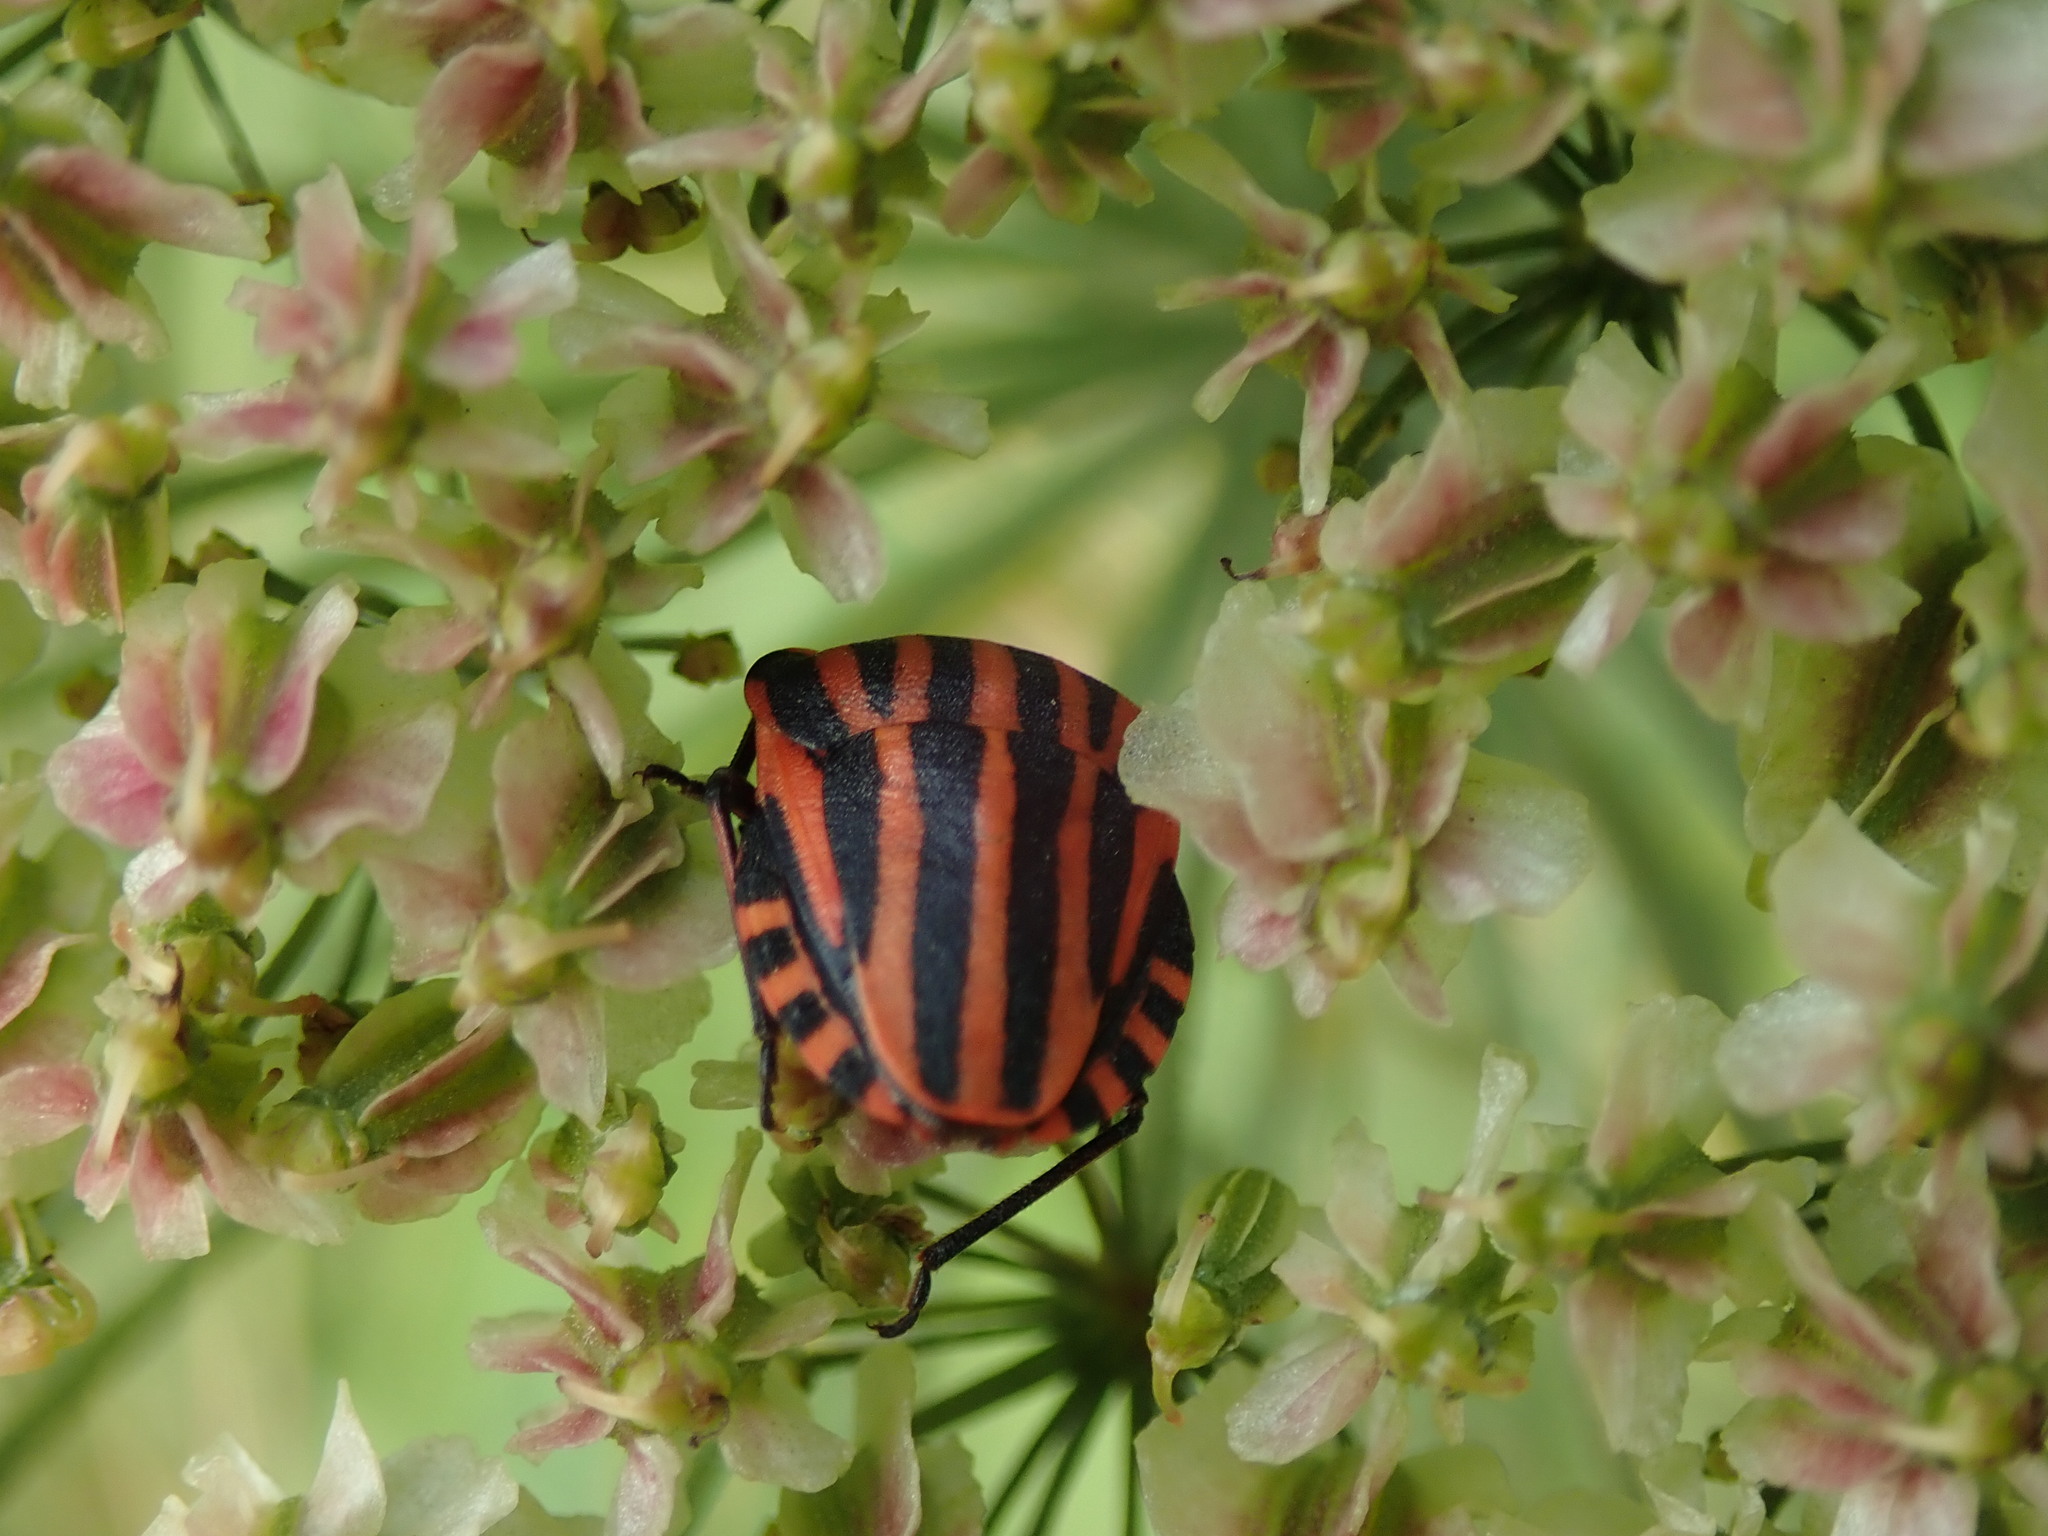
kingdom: Animalia
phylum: Arthropoda
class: Insecta
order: Hemiptera
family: Pentatomidae
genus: Graphosoma
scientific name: Graphosoma italicum
